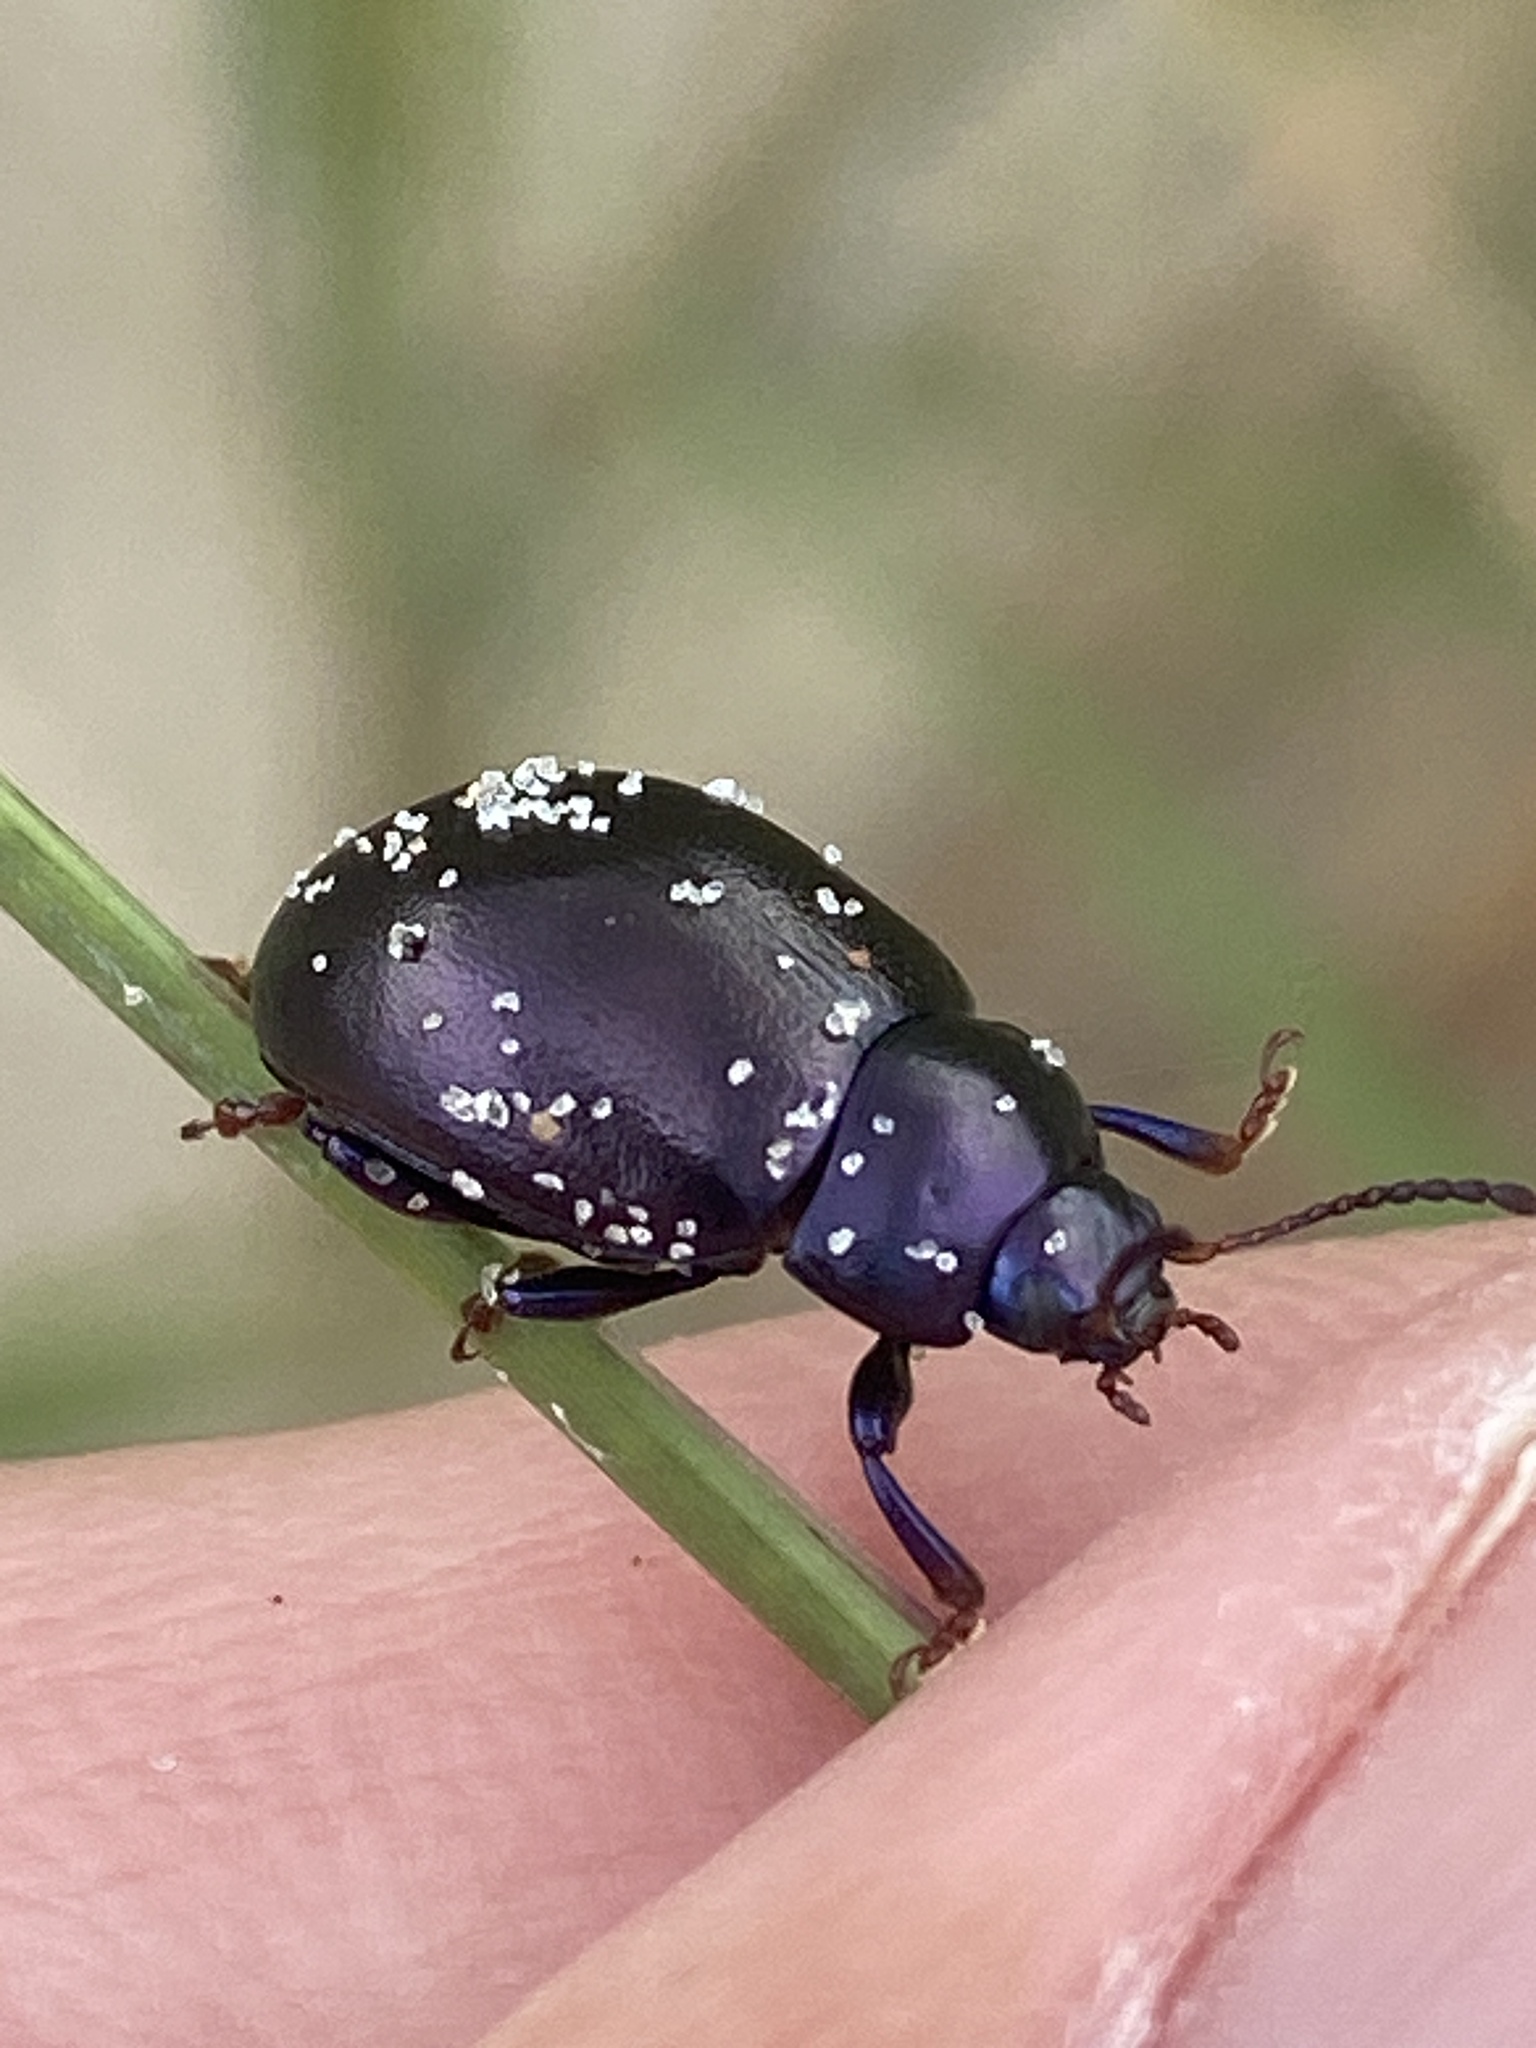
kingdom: Animalia
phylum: Arthropoda
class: Insecta
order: Coleoptera
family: Chrysomelidae
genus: Chrysolina
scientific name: Chrysolina sturmi
